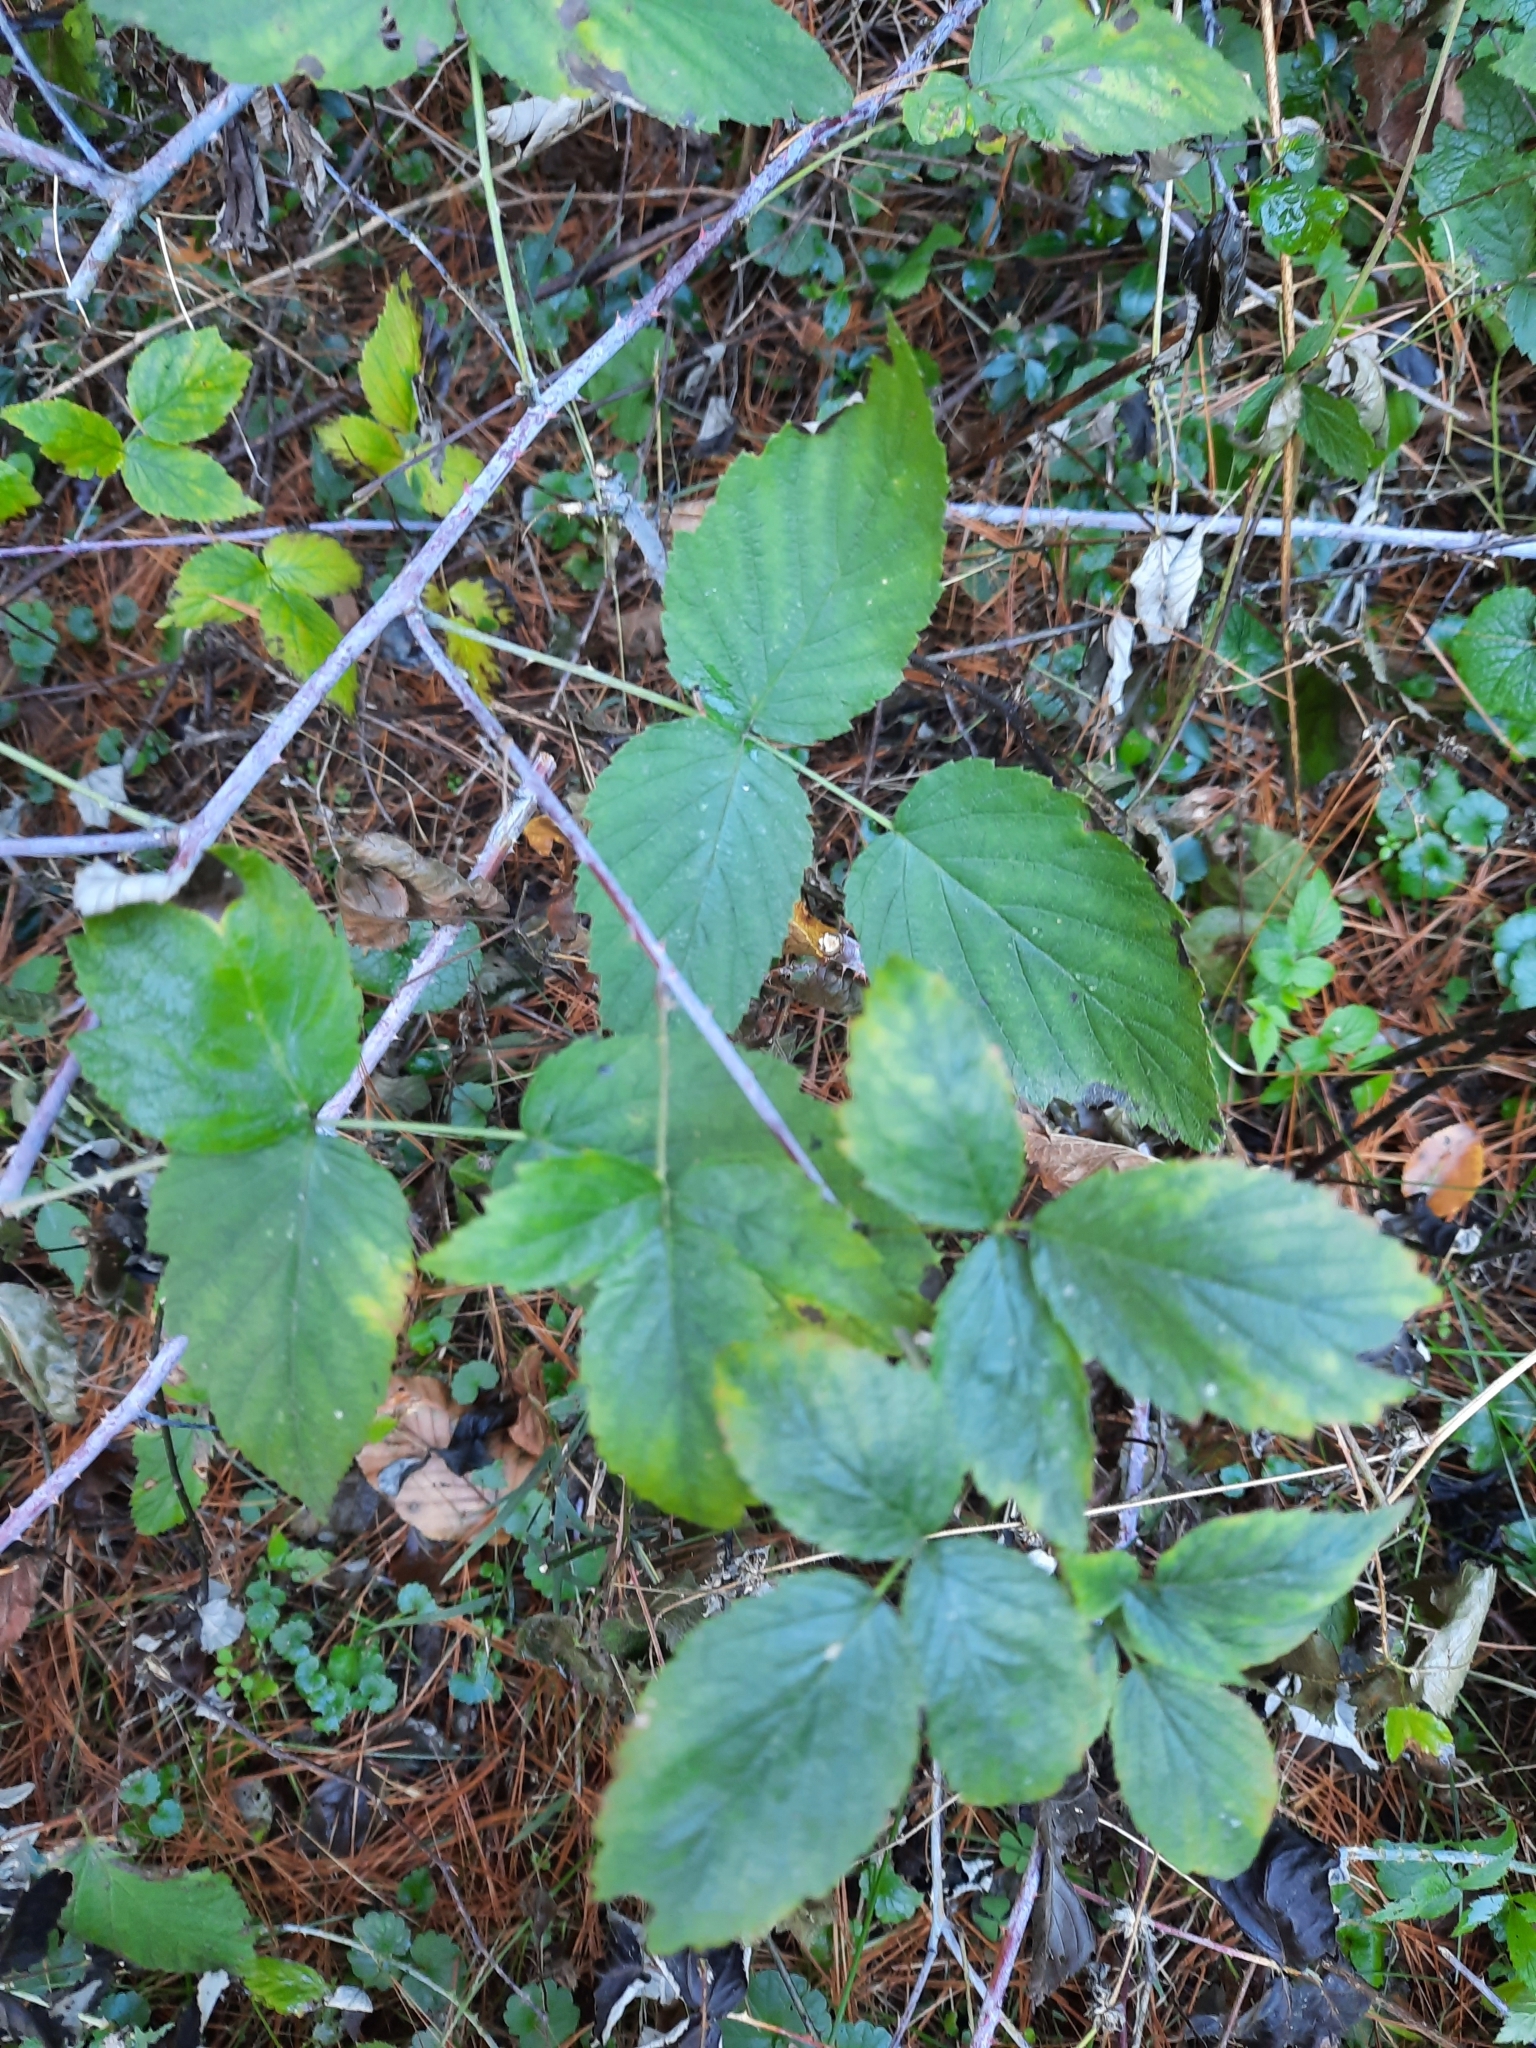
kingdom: Plantae
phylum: Tracheophyta
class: Magnoliopsida
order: Rosales
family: Rosaceae
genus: Rubus
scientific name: Rubus occidentalis
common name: Black raspberry
